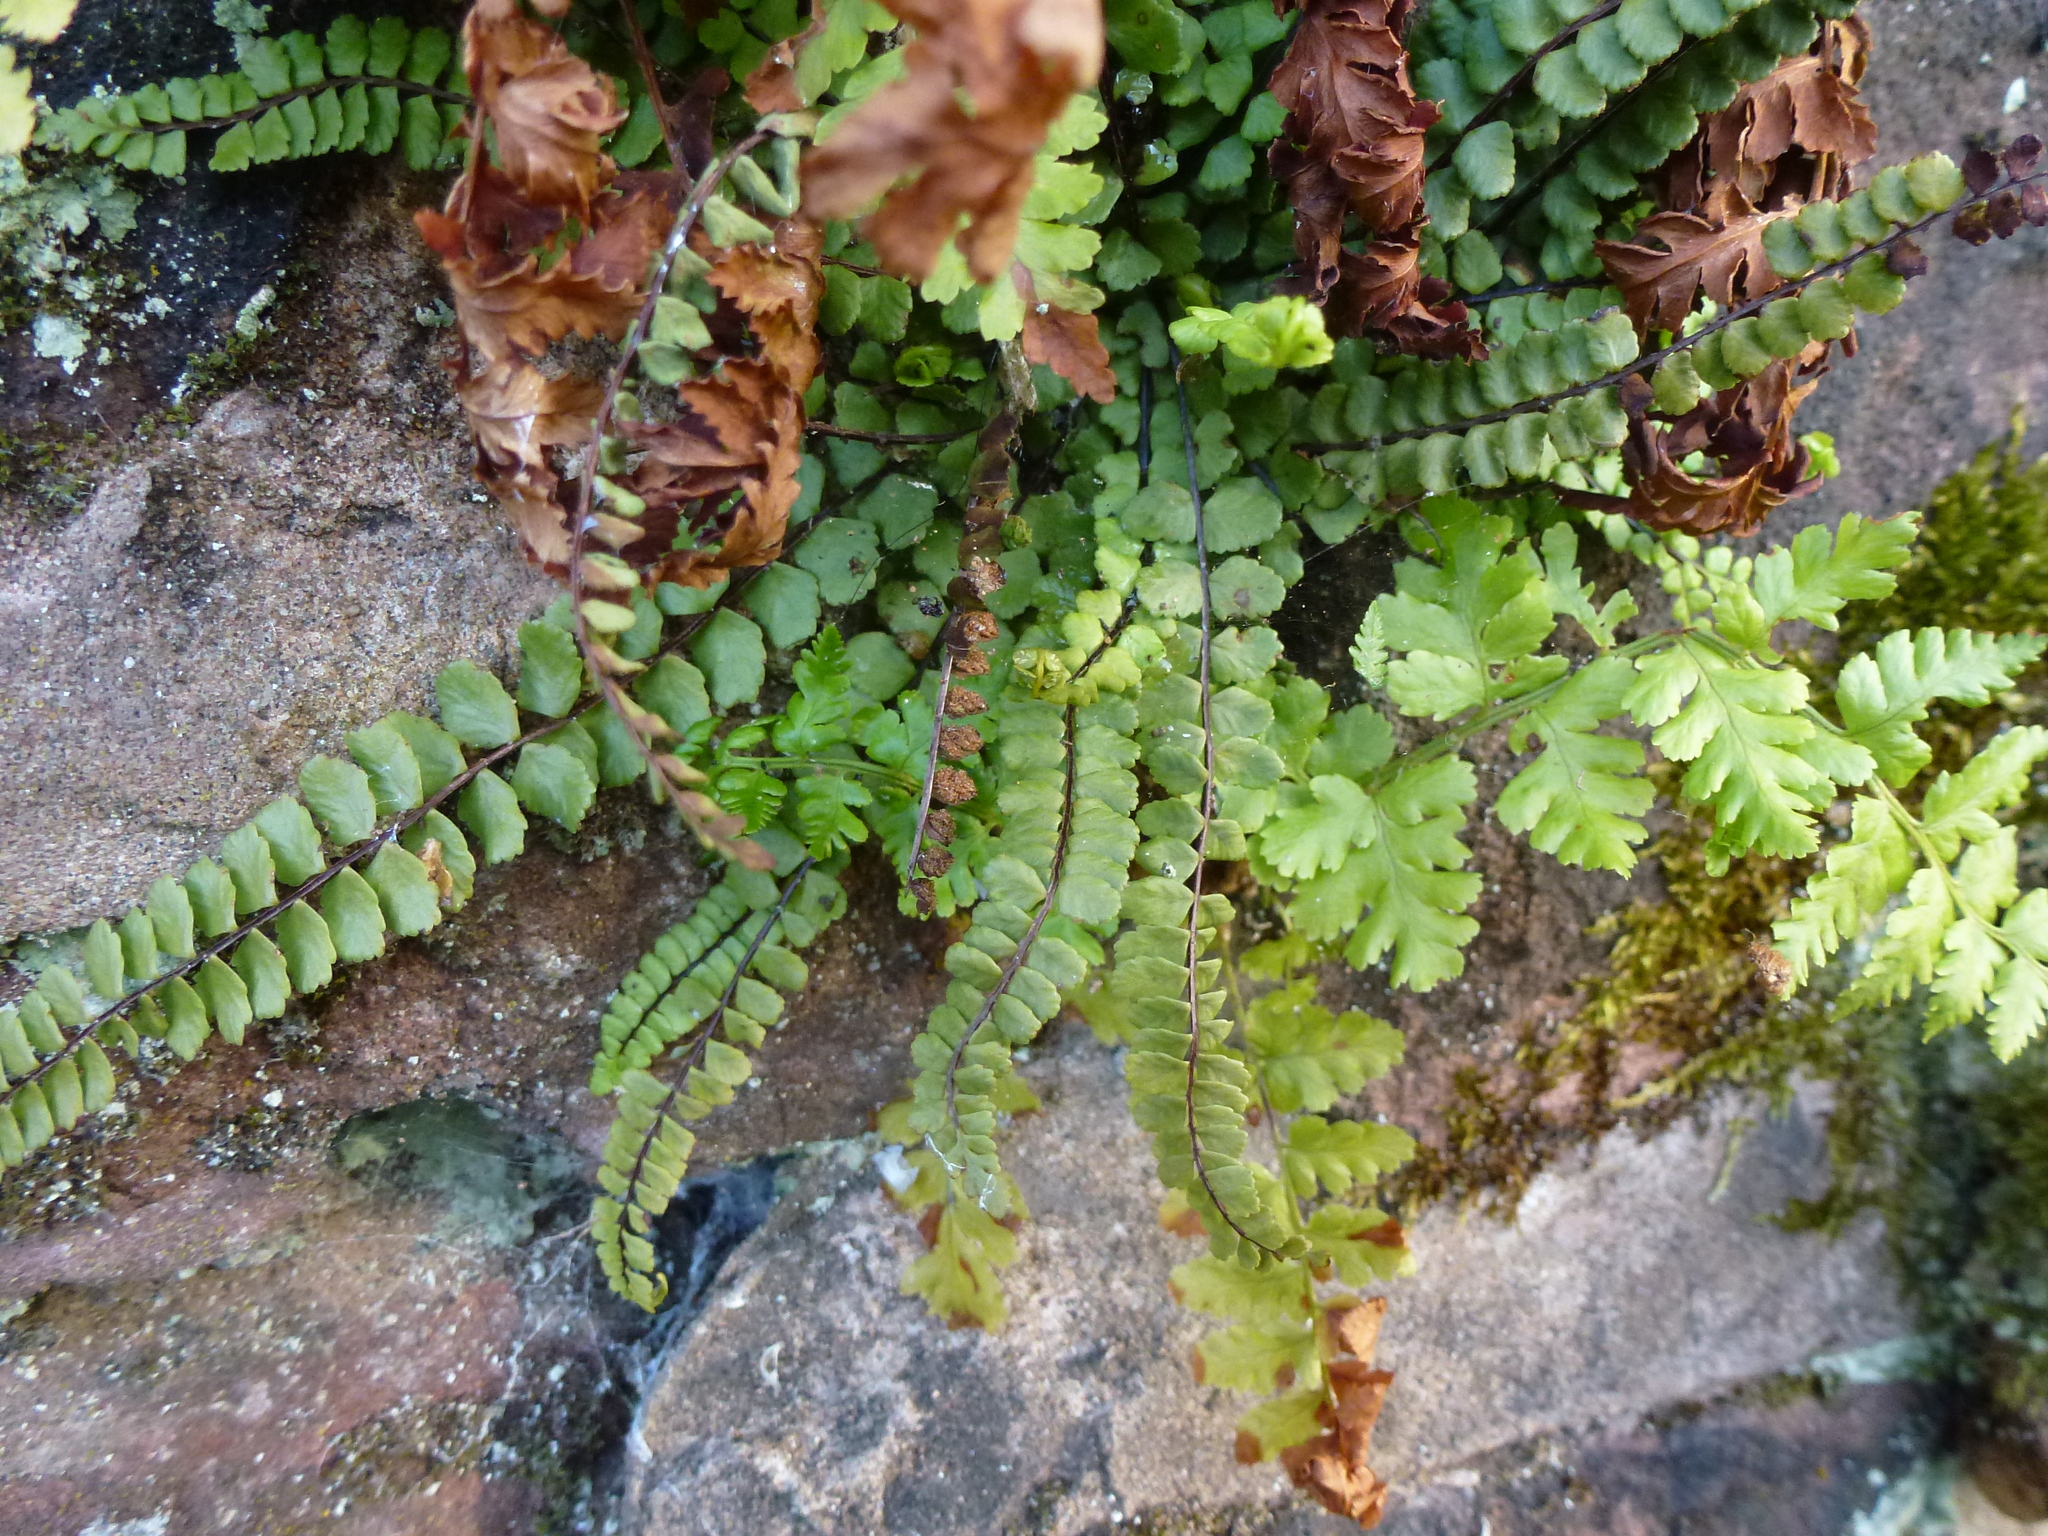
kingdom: Plantae
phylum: Tracheophyta
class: Polypodiopsida
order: Polypodiales
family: Aspleniaceae
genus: Asplenium
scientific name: Asplenium trichomanes
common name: Maidenhair spleenwort
